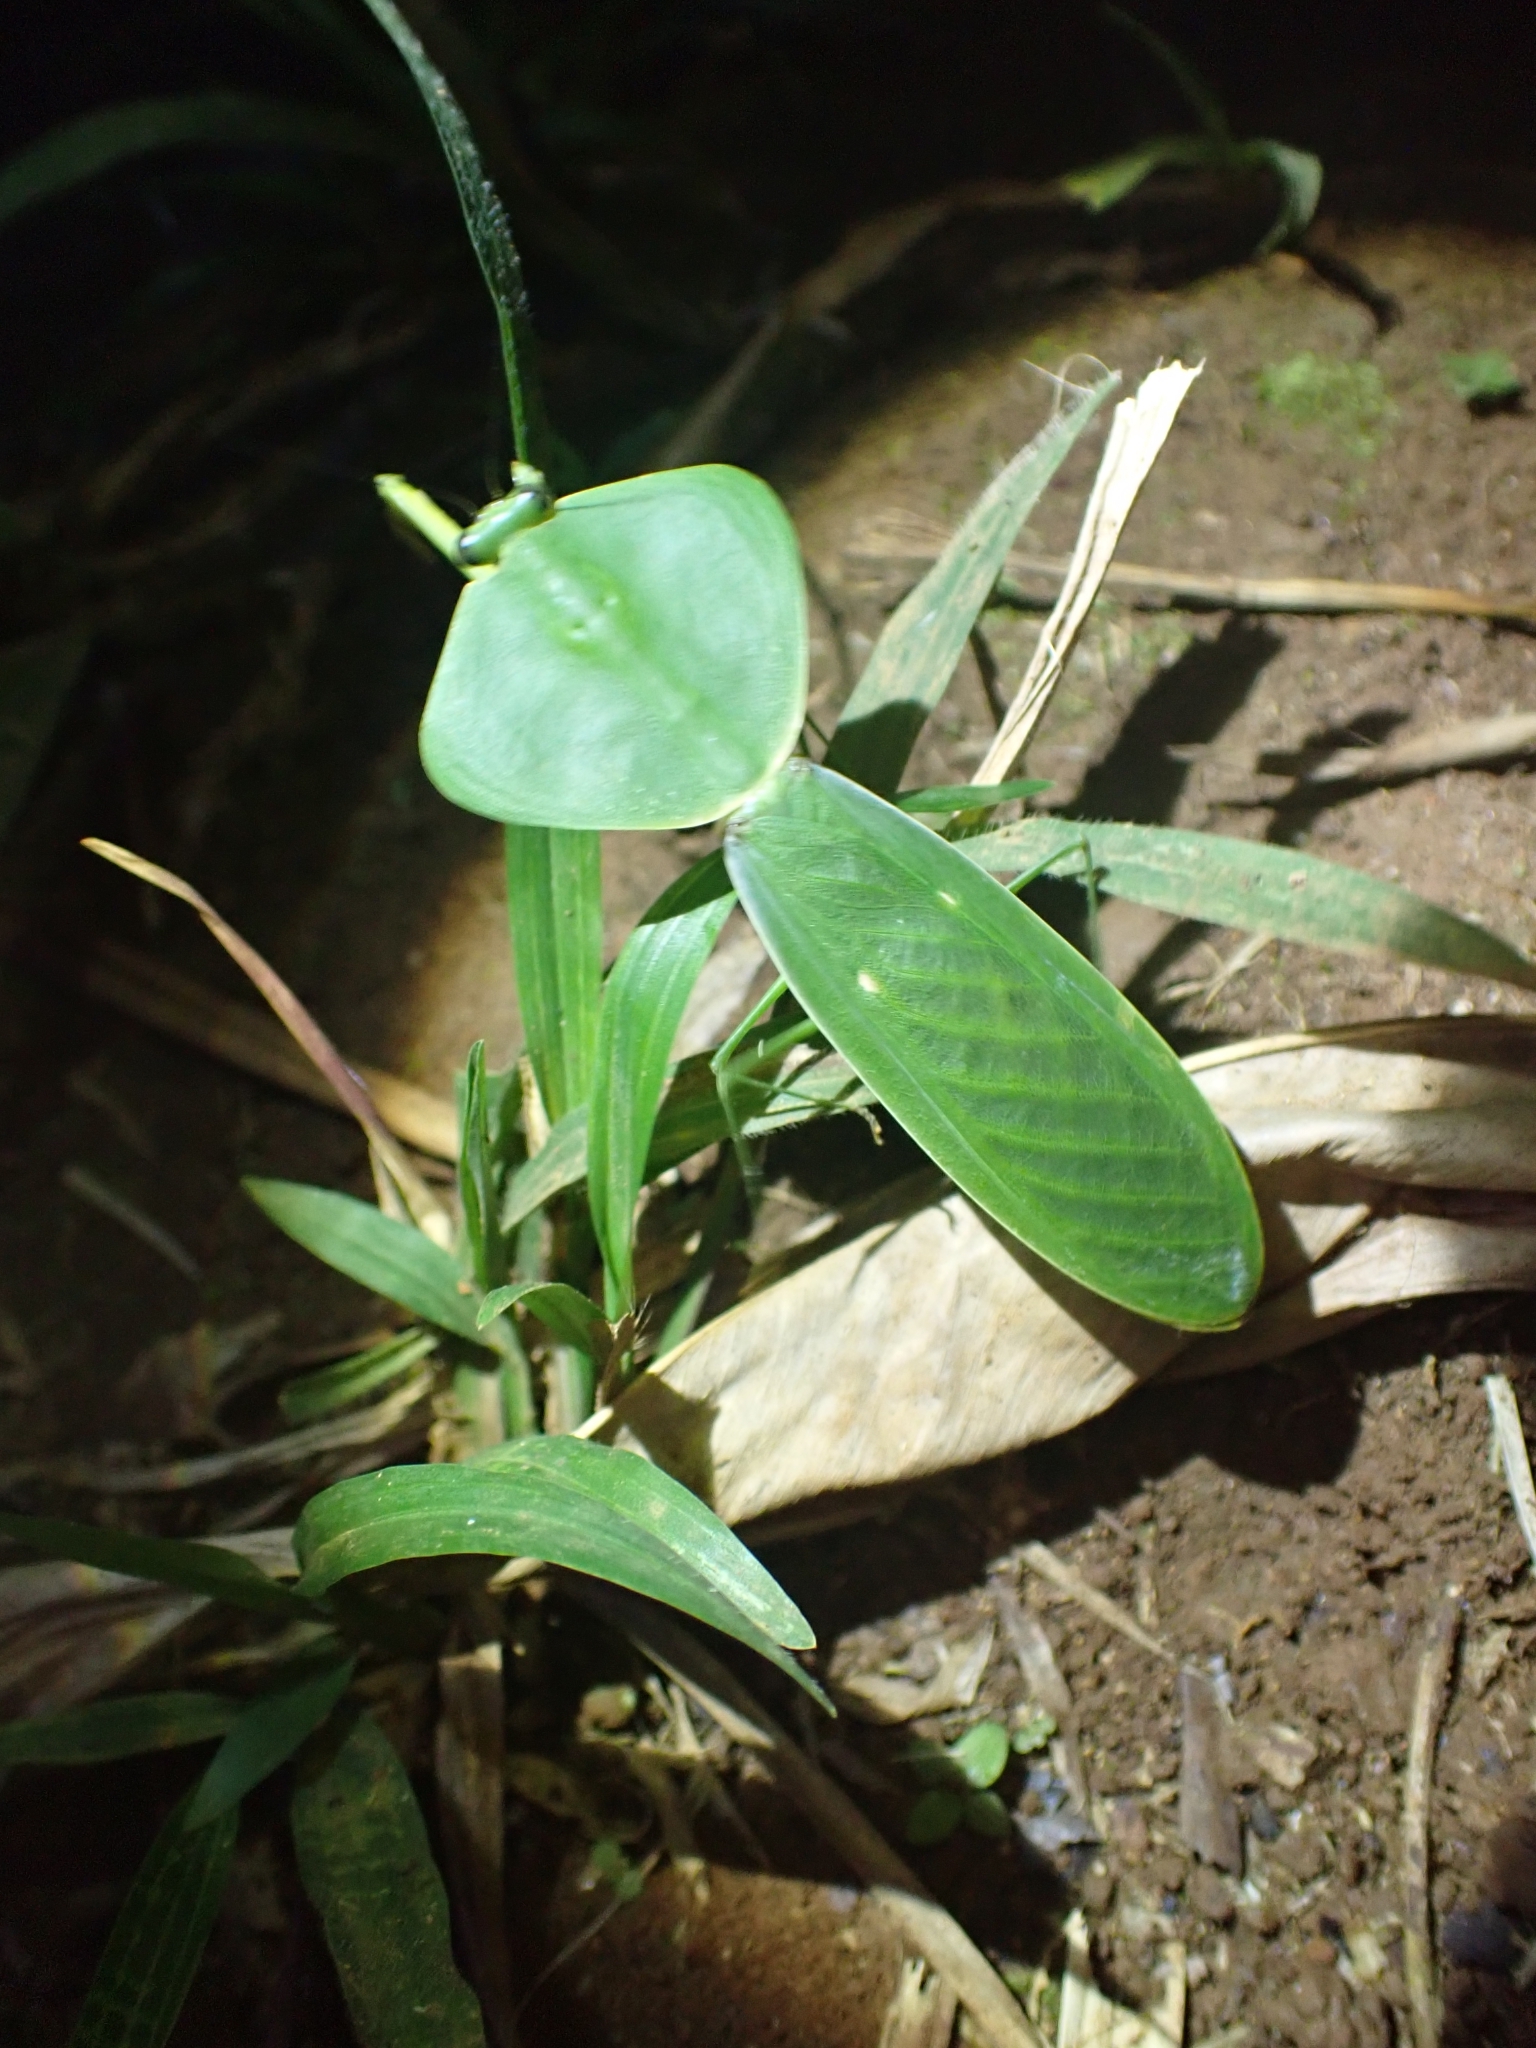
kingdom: Animalia
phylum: Arthropoda
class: Insecta
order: Mantodea
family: Mantidae
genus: Choeradodis
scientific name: Choeradodis rhombicollis
